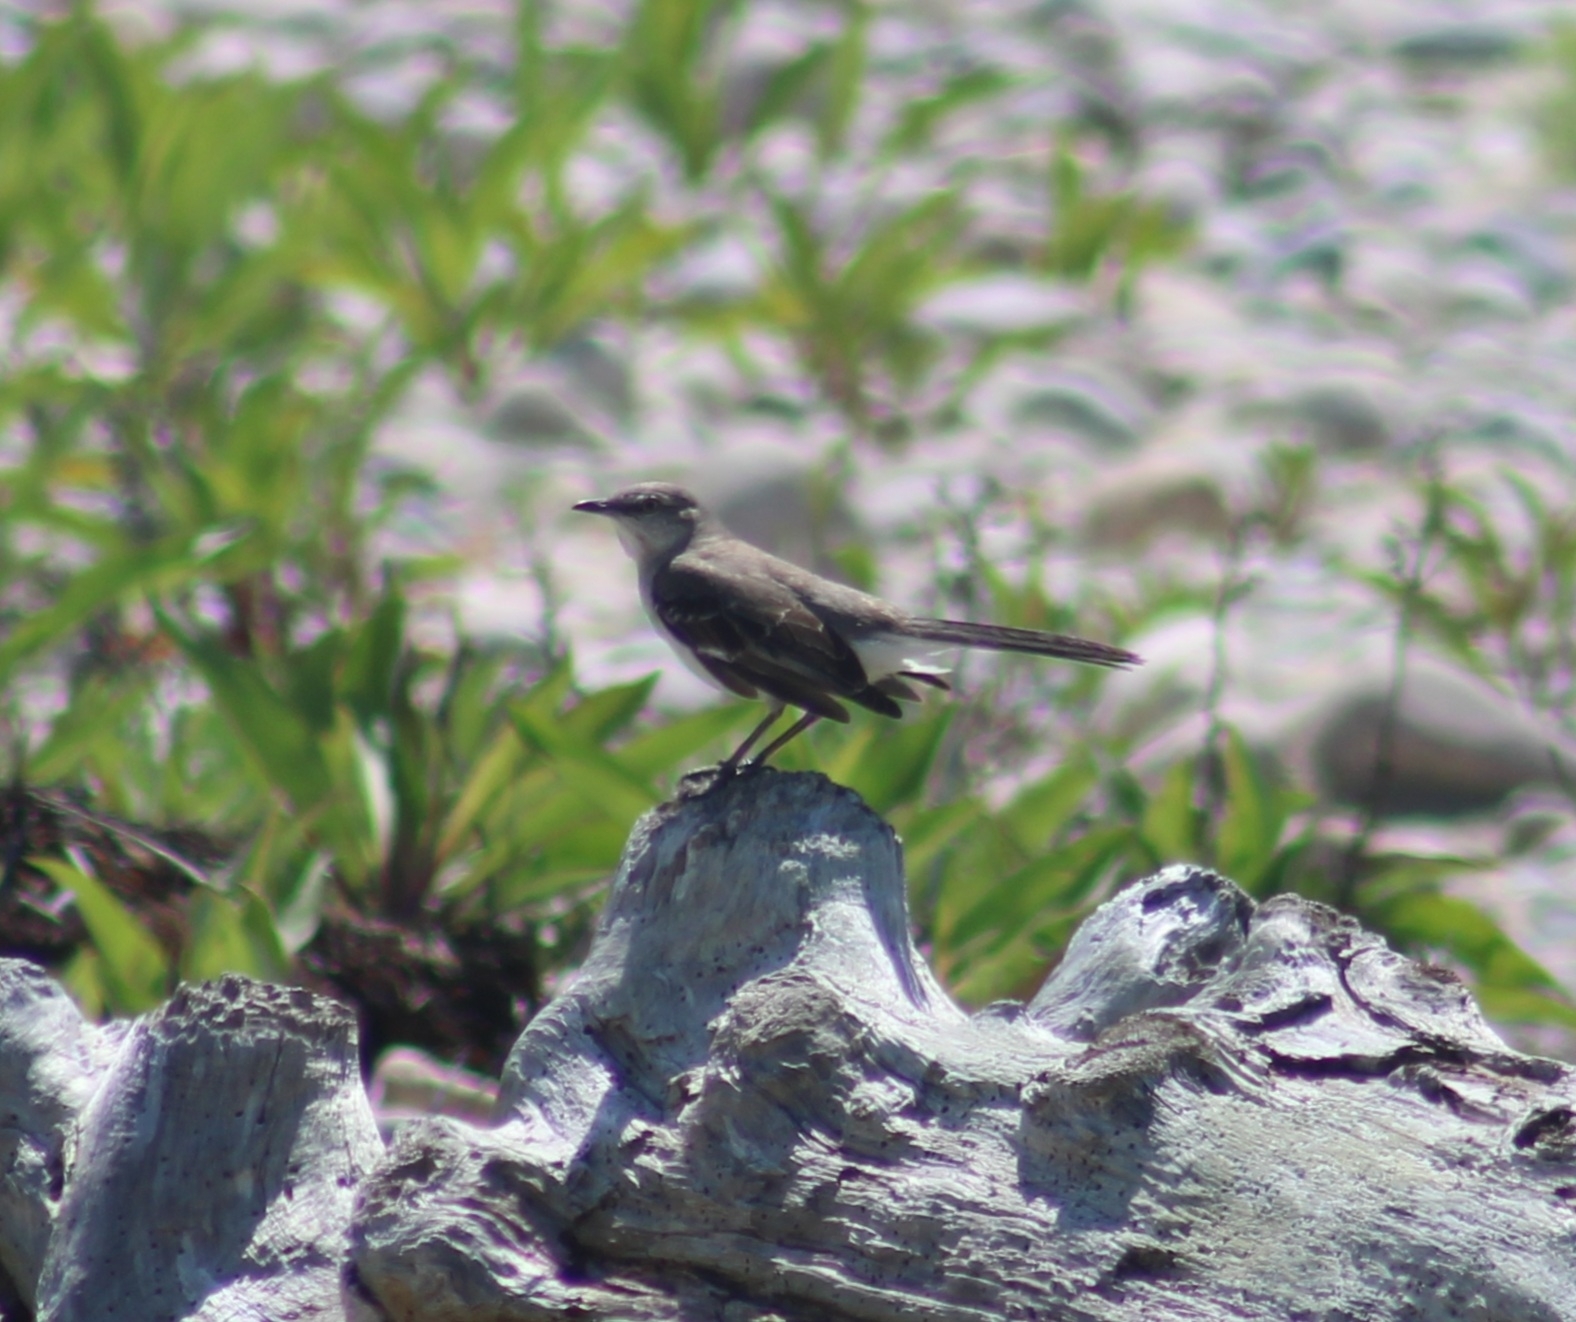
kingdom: Animalia
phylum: Chordata
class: Aves
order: Passeriformes
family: Mimidae
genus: Mimus
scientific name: Mimus polyglottos
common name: Northern mockingbird
